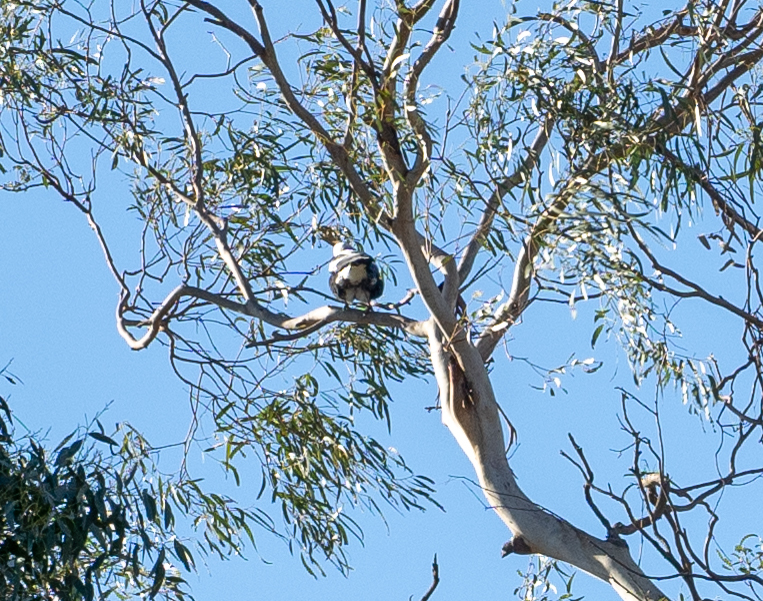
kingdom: Animalia
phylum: Chordata
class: Aves
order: Passeriformes
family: Cracticidae
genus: Gymnorhina
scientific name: Gymnorhina tibicen
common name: Australian magpie
